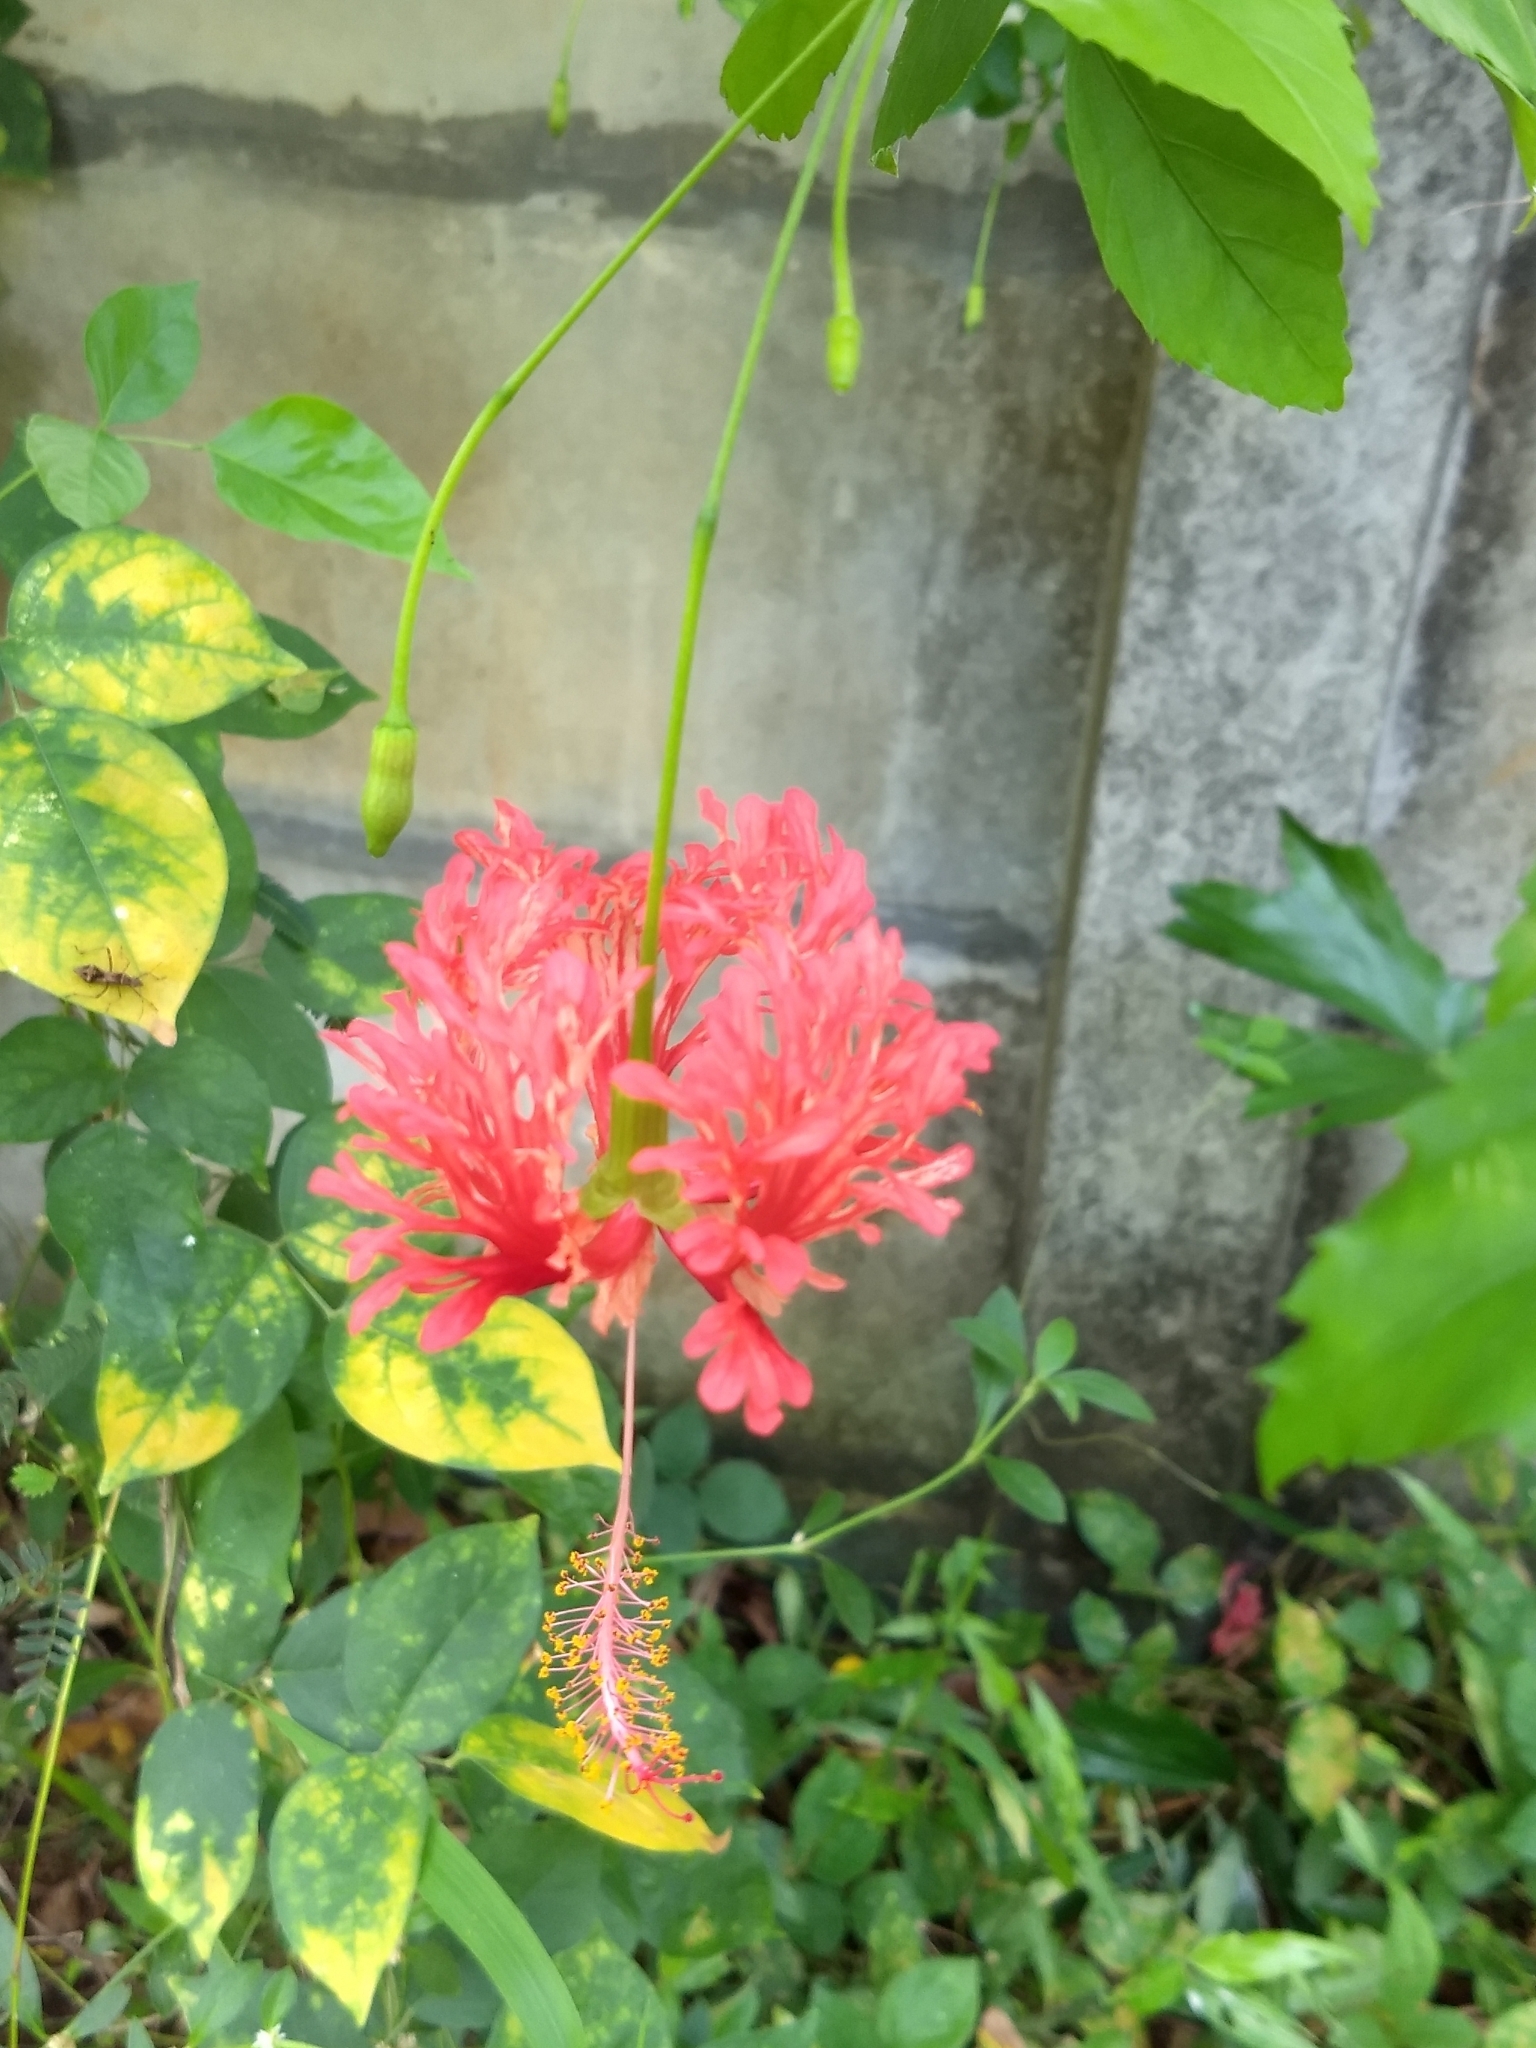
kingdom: Plantae
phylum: Tracheophyta
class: Magnoliopsida
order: Malvales
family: Malvaceae
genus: Hibiscus
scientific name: Hibiscus schizopetalus
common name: Fringed rosemallow
